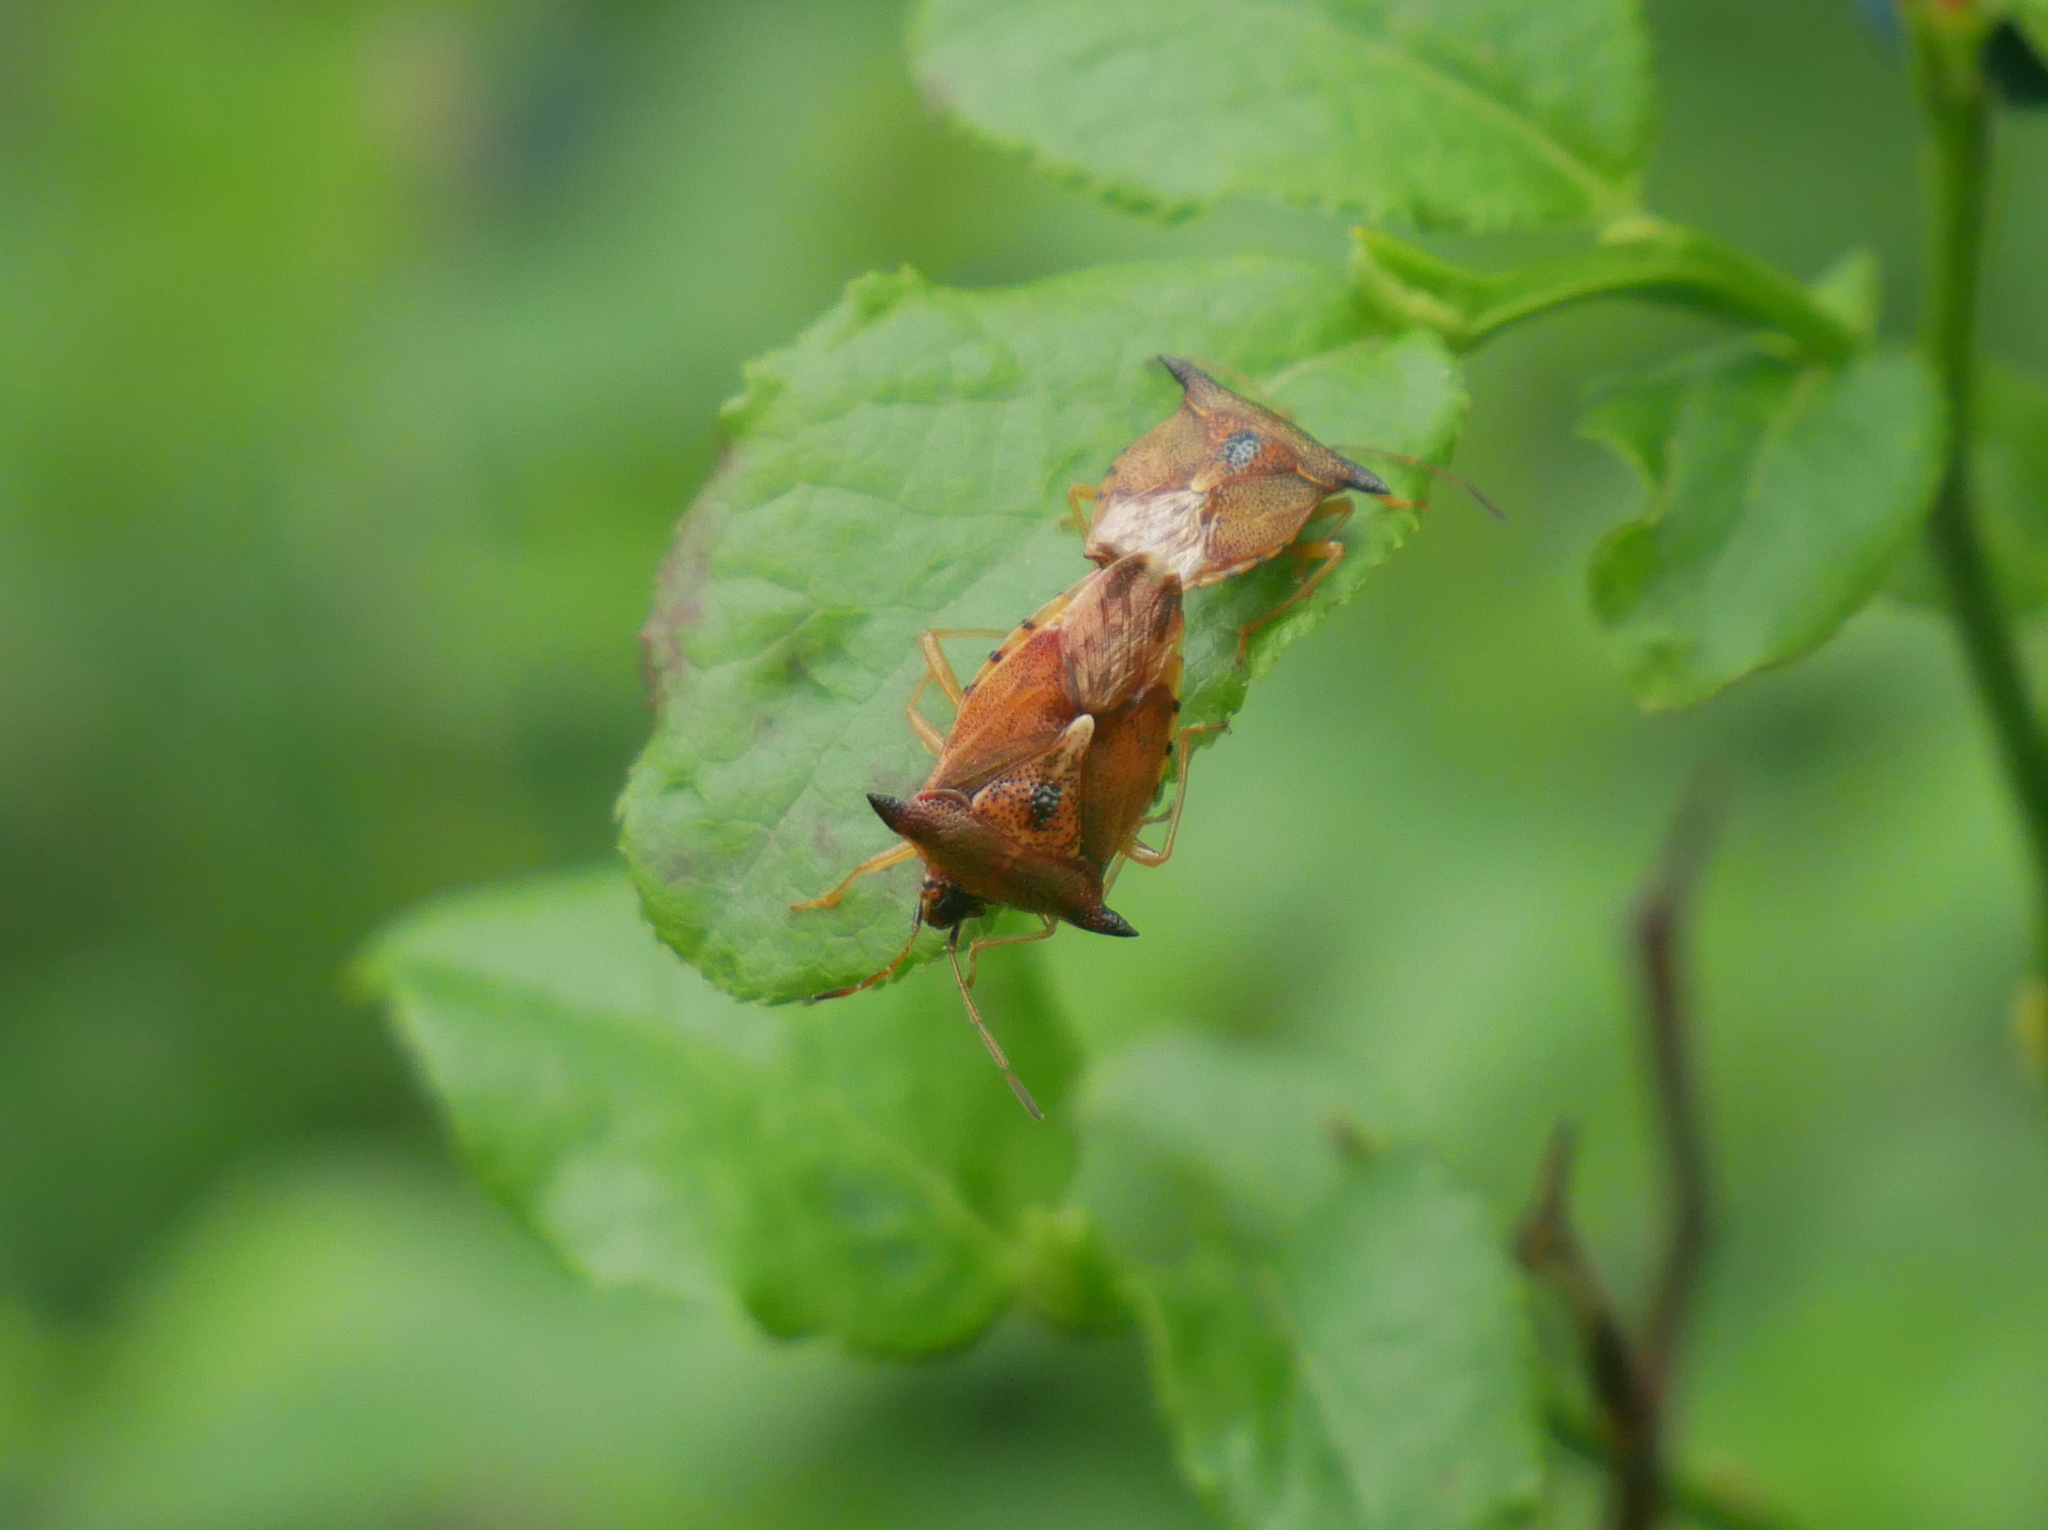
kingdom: Animalia
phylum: Arthropoda
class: Insecta
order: Hemiptera
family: Acanthosomatidae
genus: Elasmucha
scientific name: Elasmucha ferrugata
